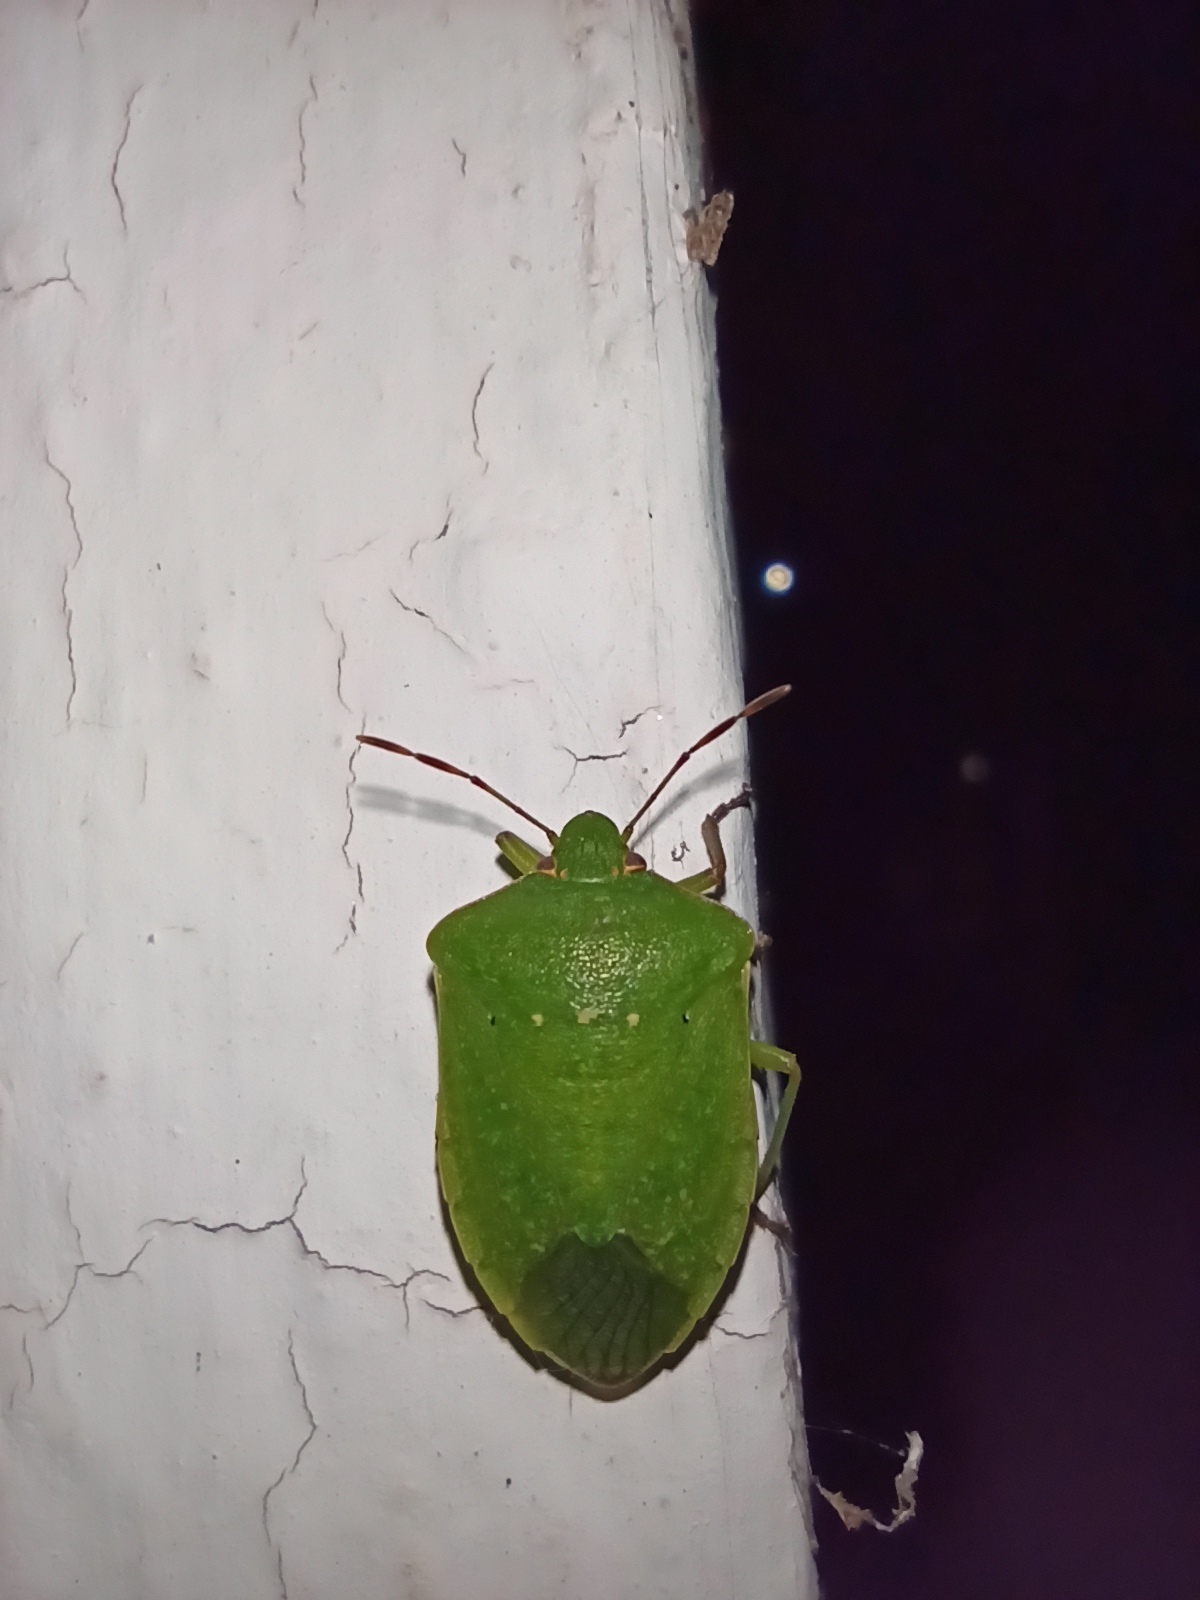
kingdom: Animalia
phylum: Arthropoda
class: Insecta
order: Hemiptera
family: Pentatomidae
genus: Nezara
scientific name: Nezara viridula
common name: Southern green stink bug
